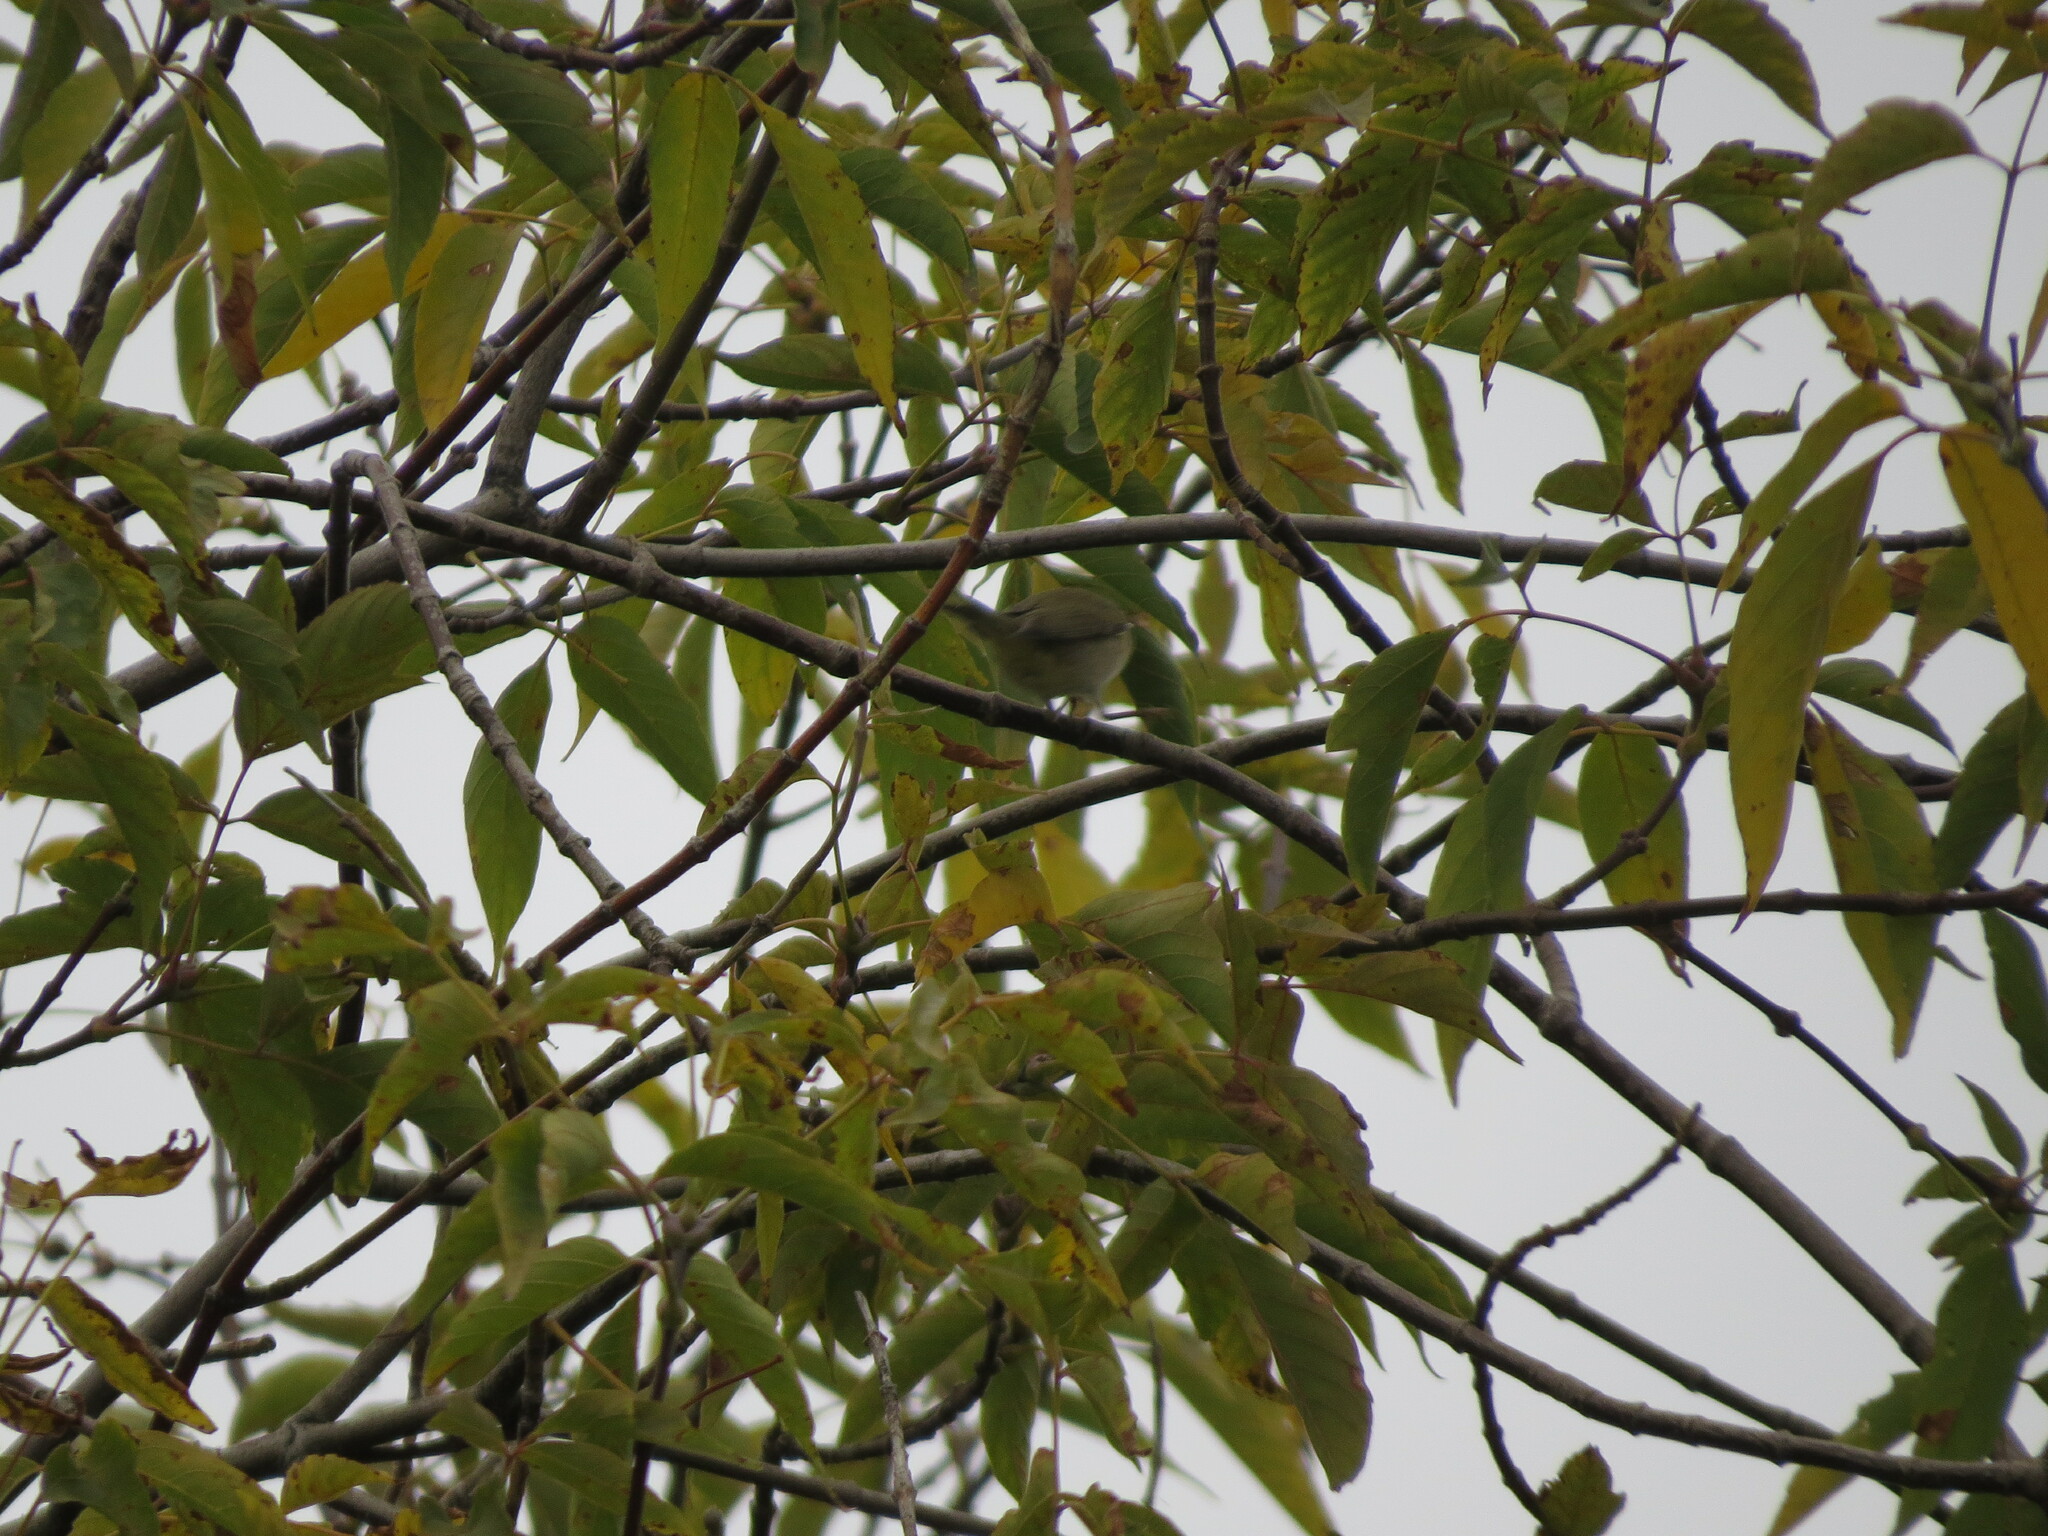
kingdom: Animalia
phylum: Chordata
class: Aves
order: Passeriformes
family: Phylloscopidae
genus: Phylloscopus
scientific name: Phylloscopus trochilus
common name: Willow warbler
